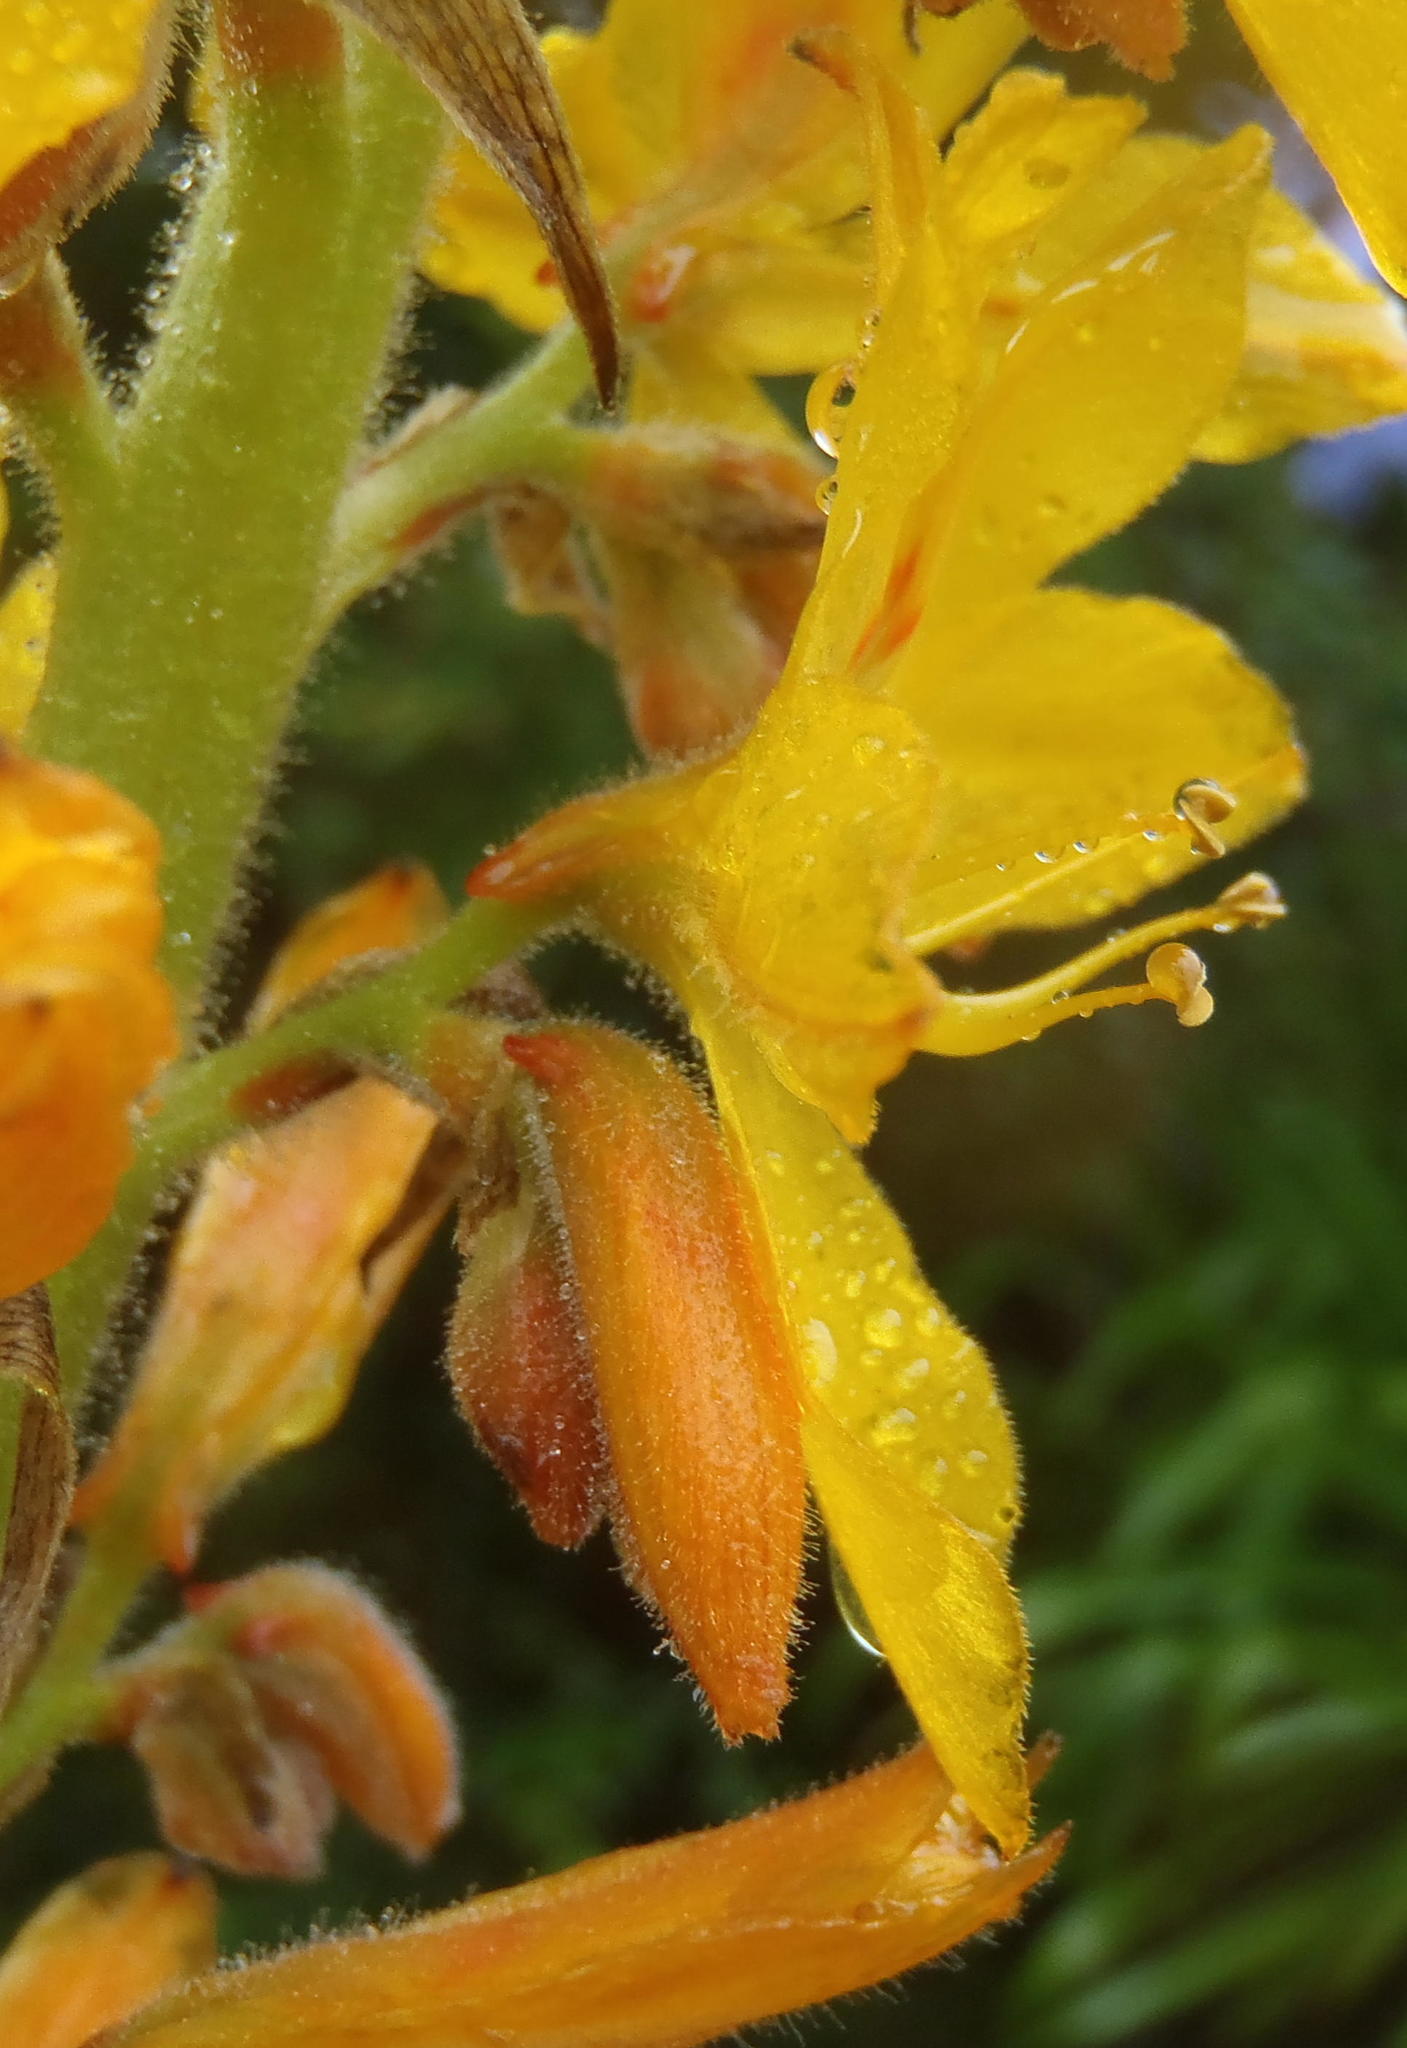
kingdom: Plantae
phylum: Tracheophyta
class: Liliopsida
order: Commelinales
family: Haemodoraceae
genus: Wachendorfia
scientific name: Wachendorfia thyrsiflora
